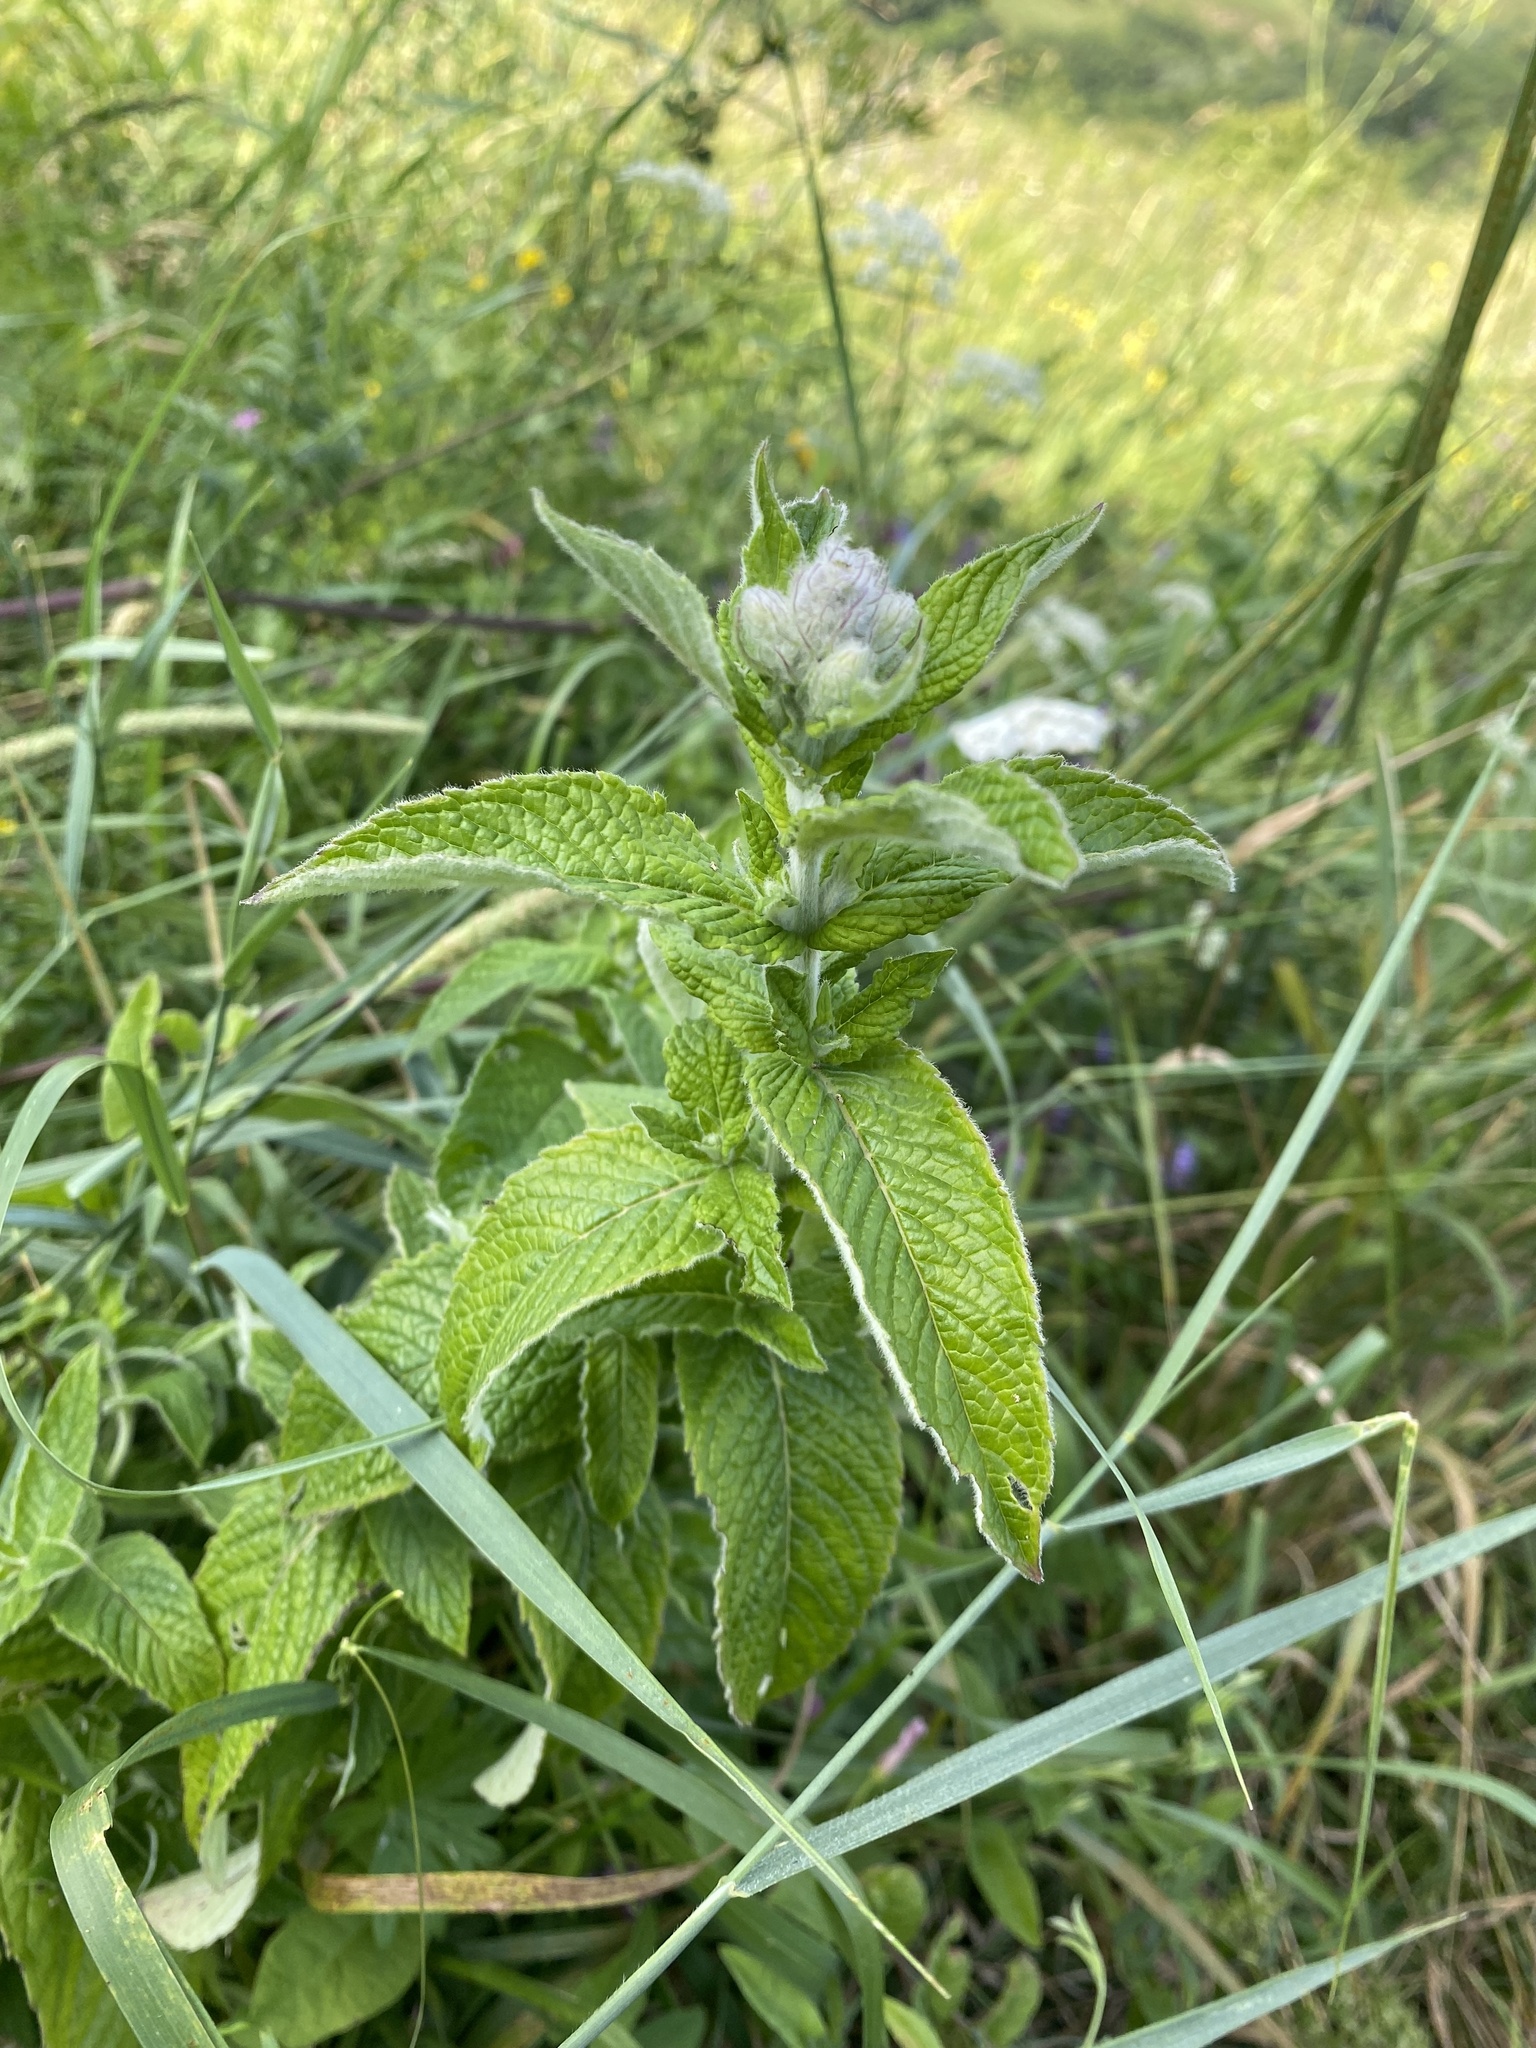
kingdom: Plantae
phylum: Tracheophyta
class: Magnoliopsida
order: Lamiales
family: Lamiaceae
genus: Mentha
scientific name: Mentha longifolia
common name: Horse mint
